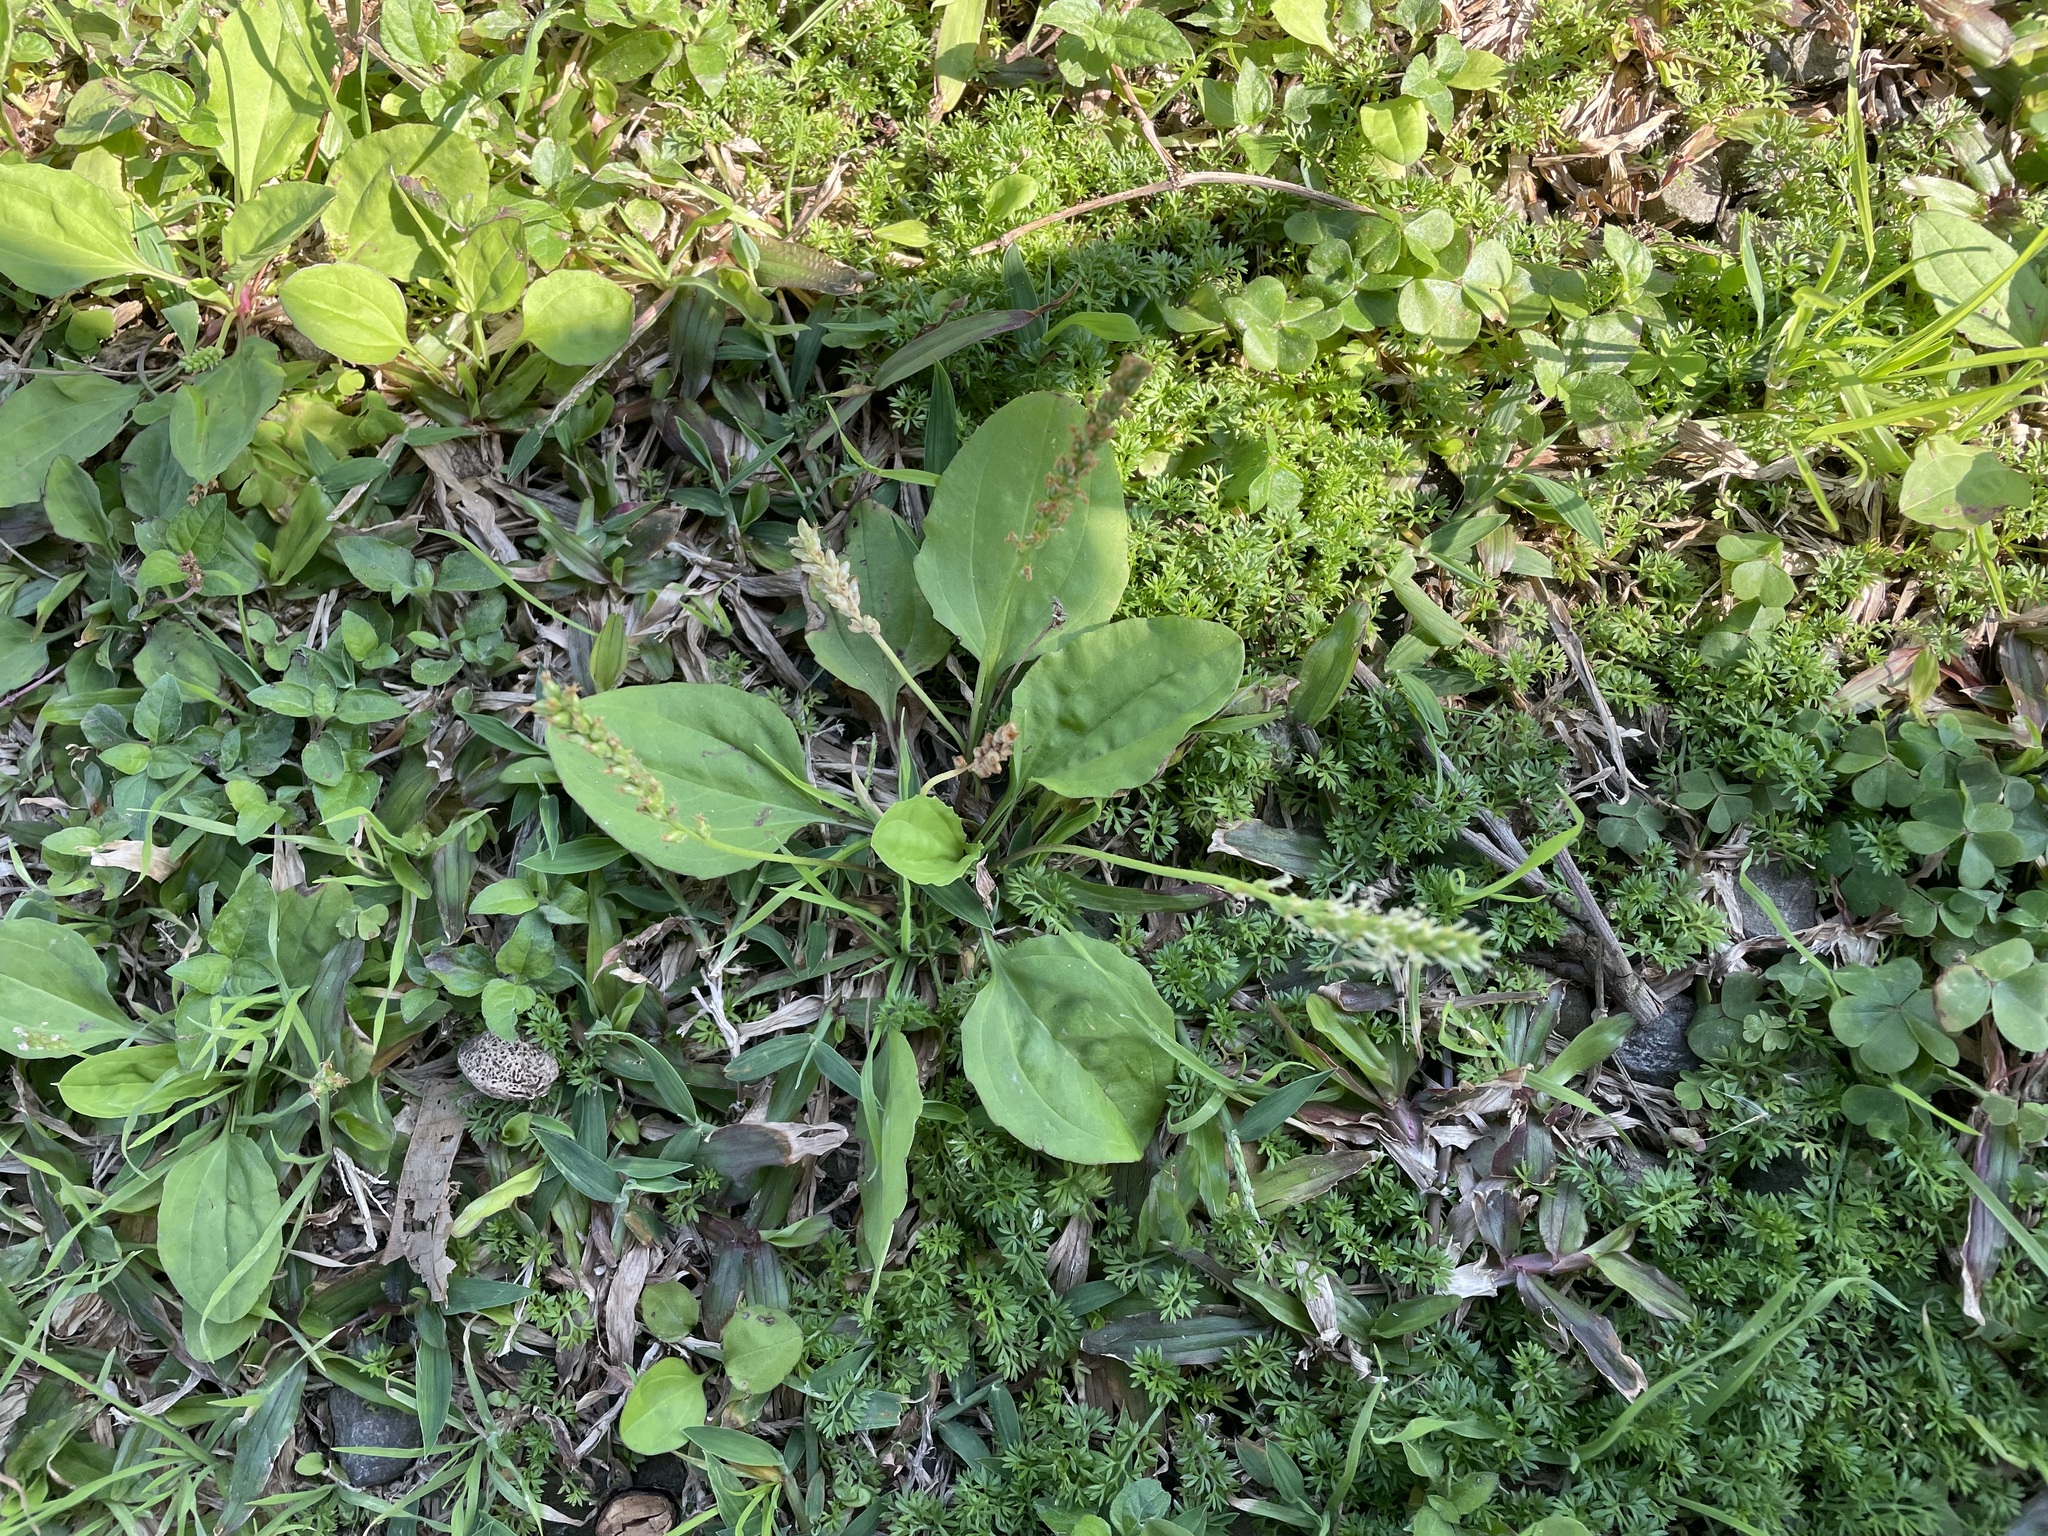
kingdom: Plantae
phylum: Tracheophyta
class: Magnoliopsida
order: Lamiales
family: Plantaginaceae
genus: Plantago
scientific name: Plantago asiatica
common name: Psyllium
